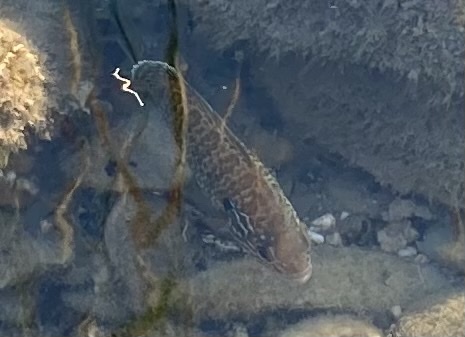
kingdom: Animalia
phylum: Chordata
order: Perciformes
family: Centrarchidae
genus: Lepomis
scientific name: Lepomis gibbosus
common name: Pumpkinseed
